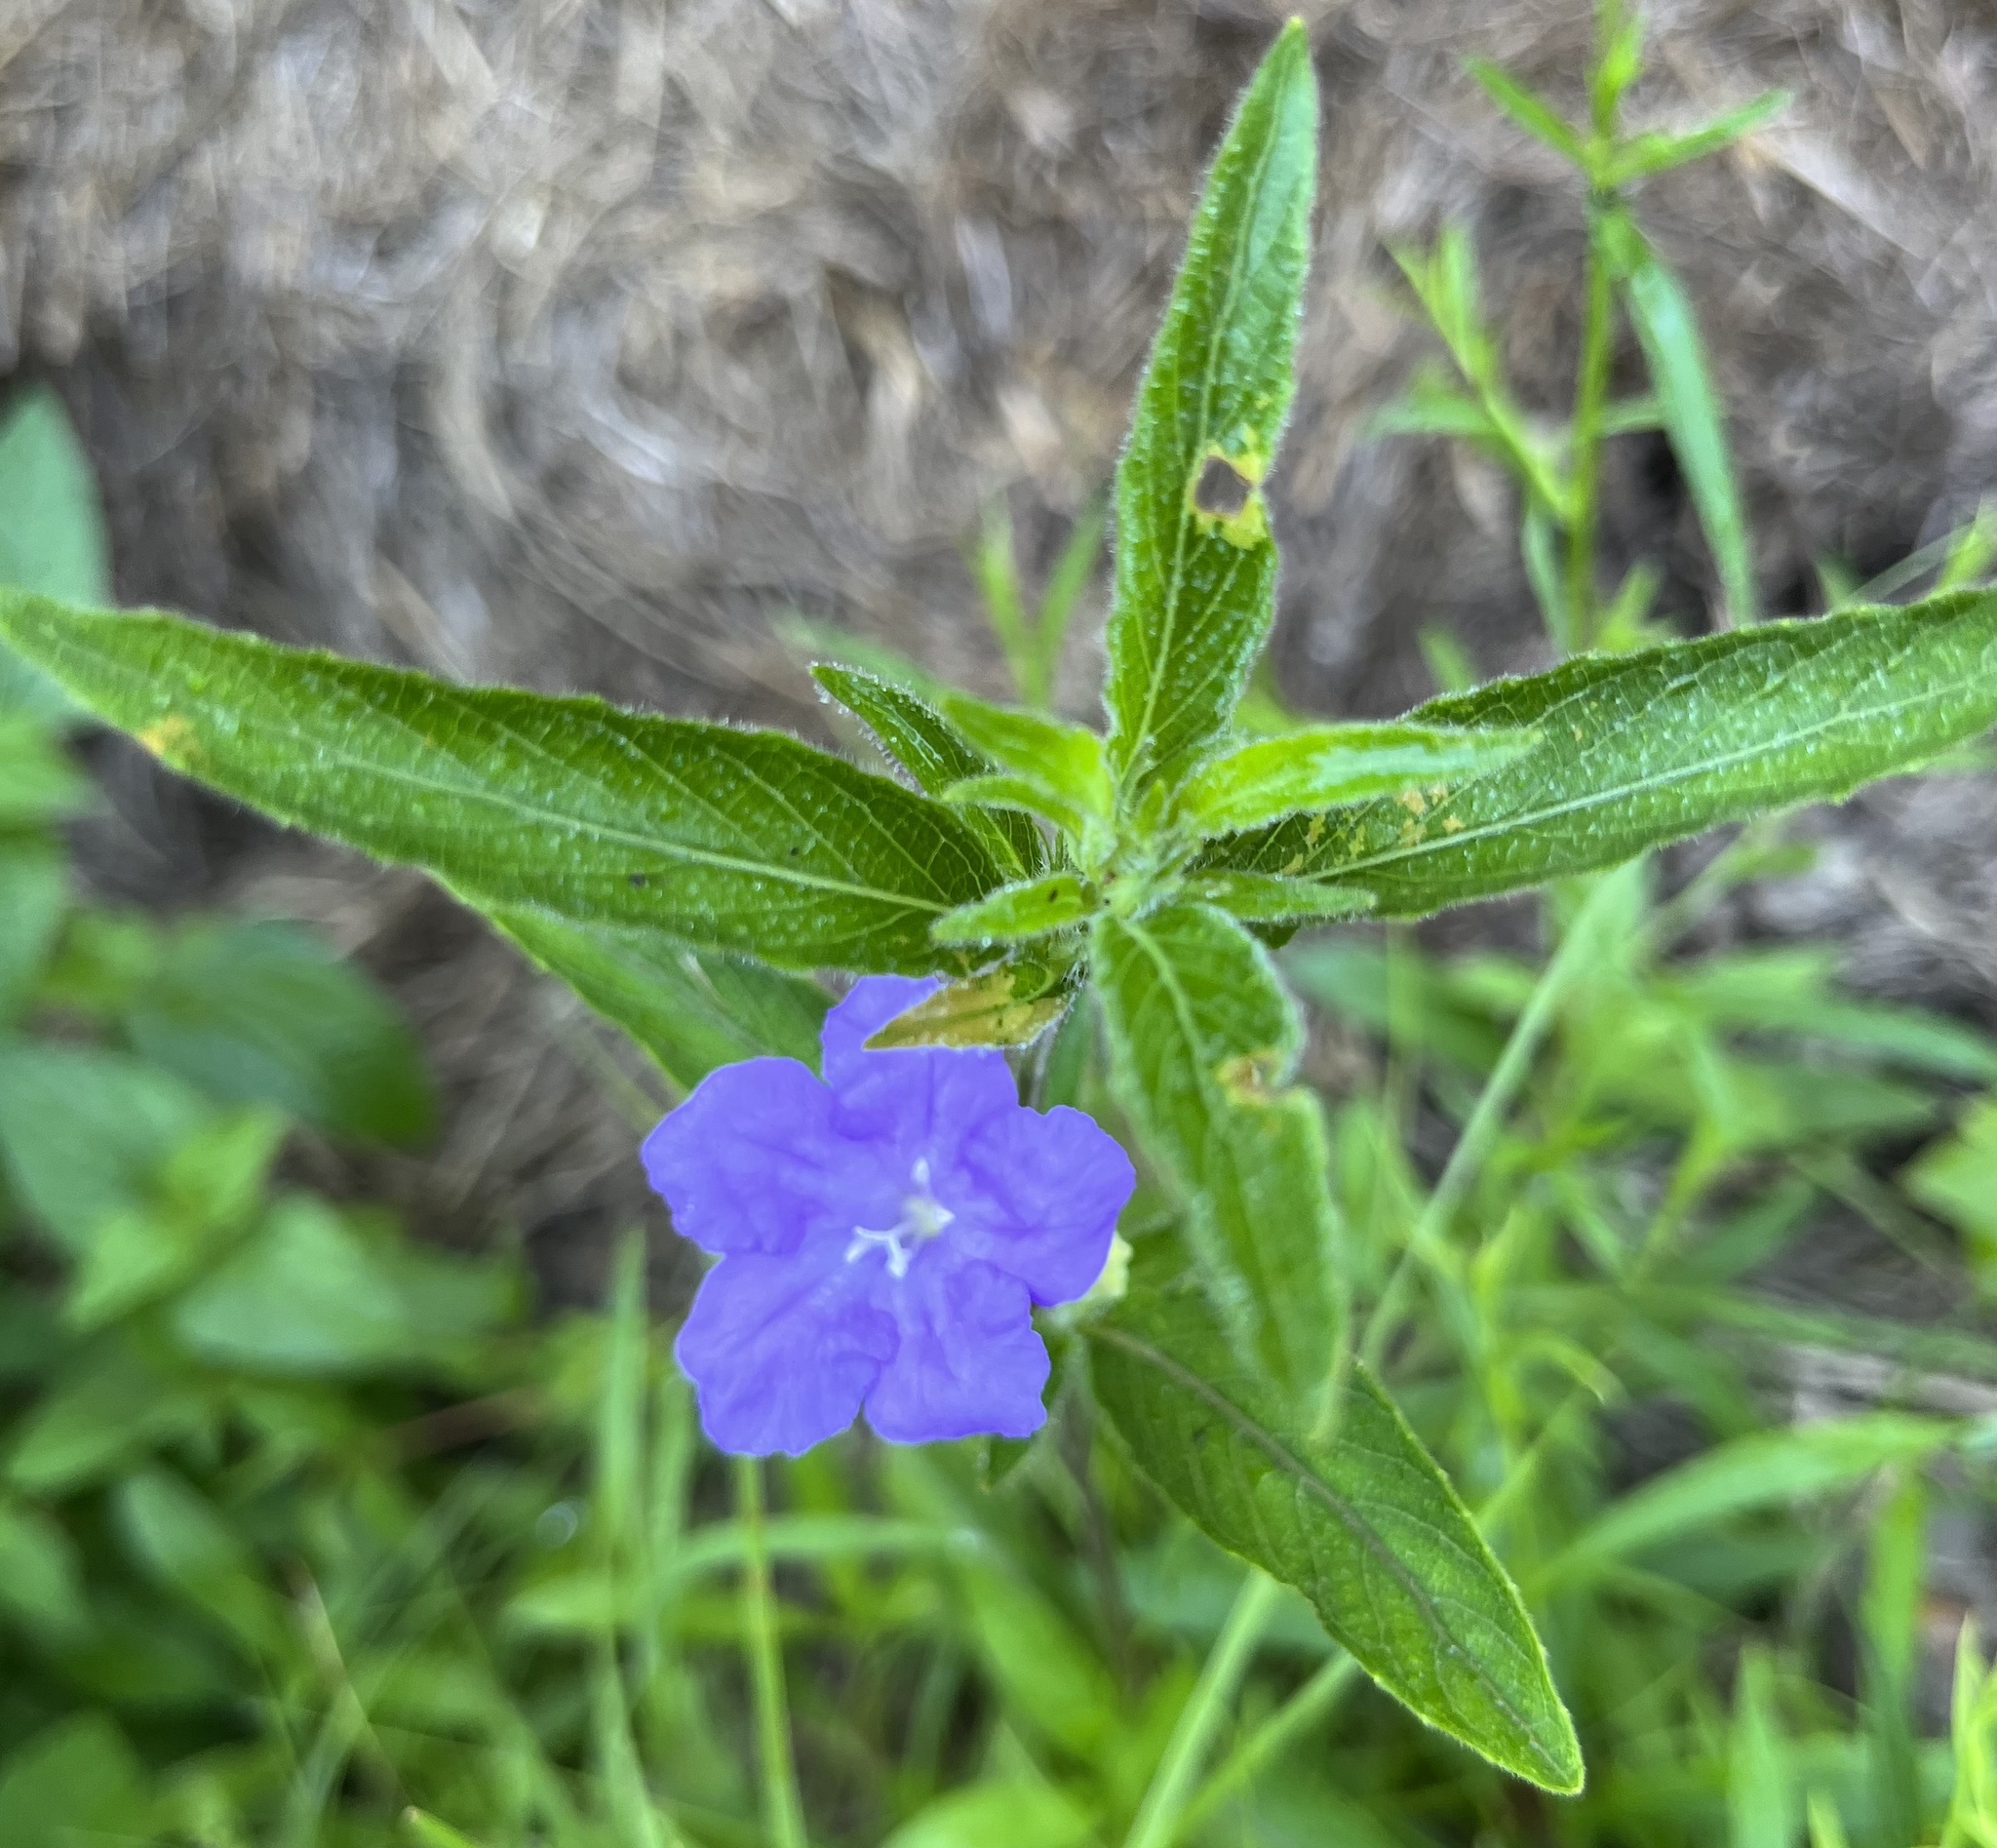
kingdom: Plantae
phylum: Tracheophyta
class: Magnoliopsida
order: Lamiales
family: Acanthaceae
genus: Ruellia
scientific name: Ruellia caroliniensis
